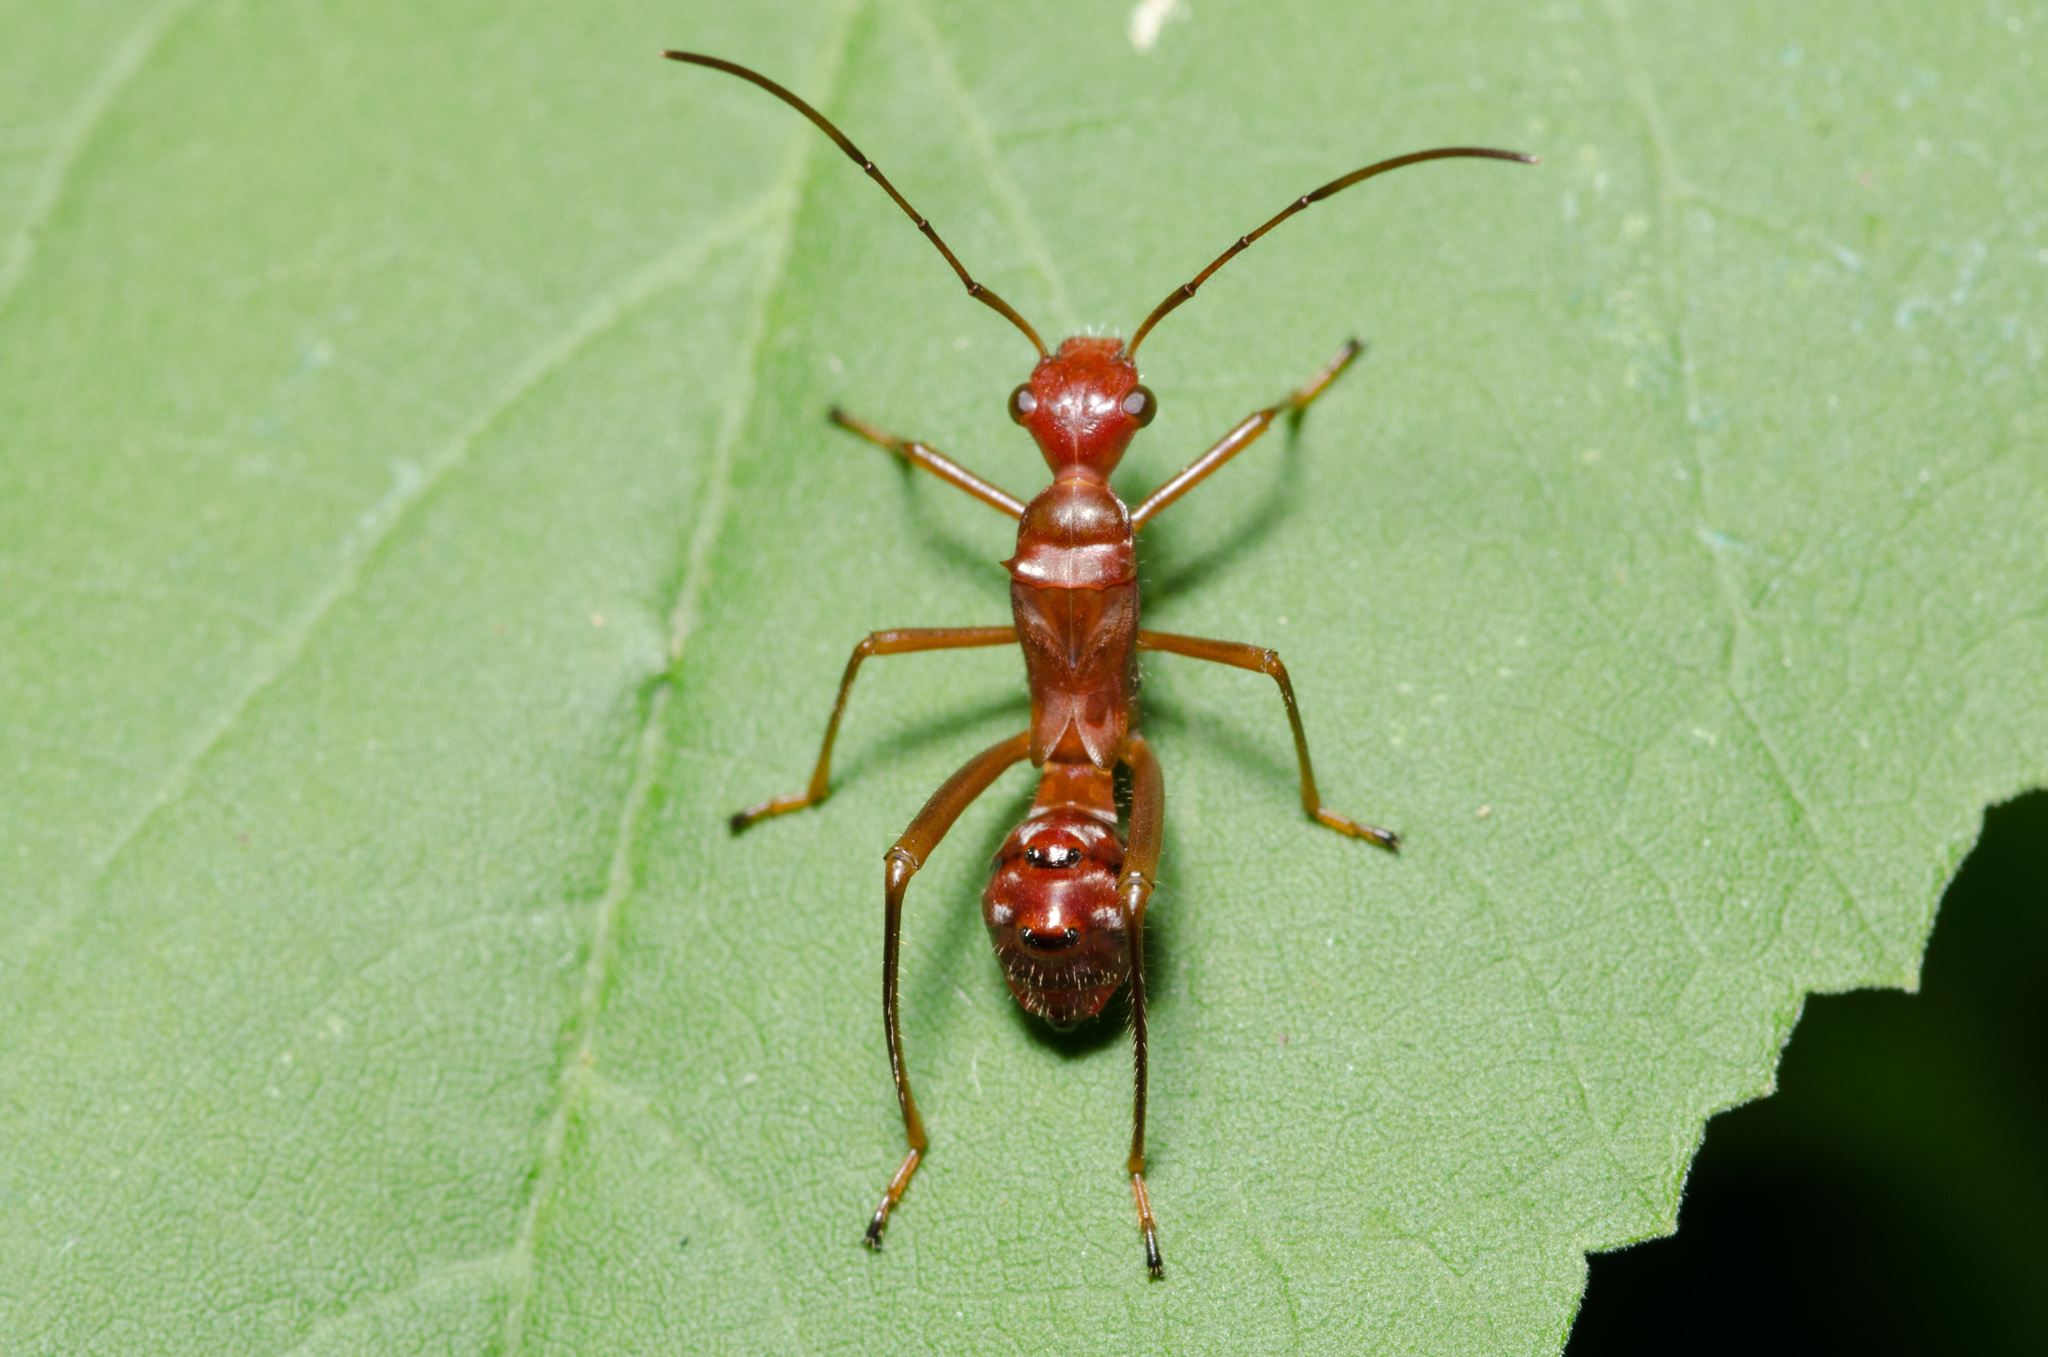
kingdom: Animalia
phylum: Arthropoda
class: Insecta
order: Hemiptera
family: Alydidae
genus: Hyalymenus
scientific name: Hyalymenus tarsatus
